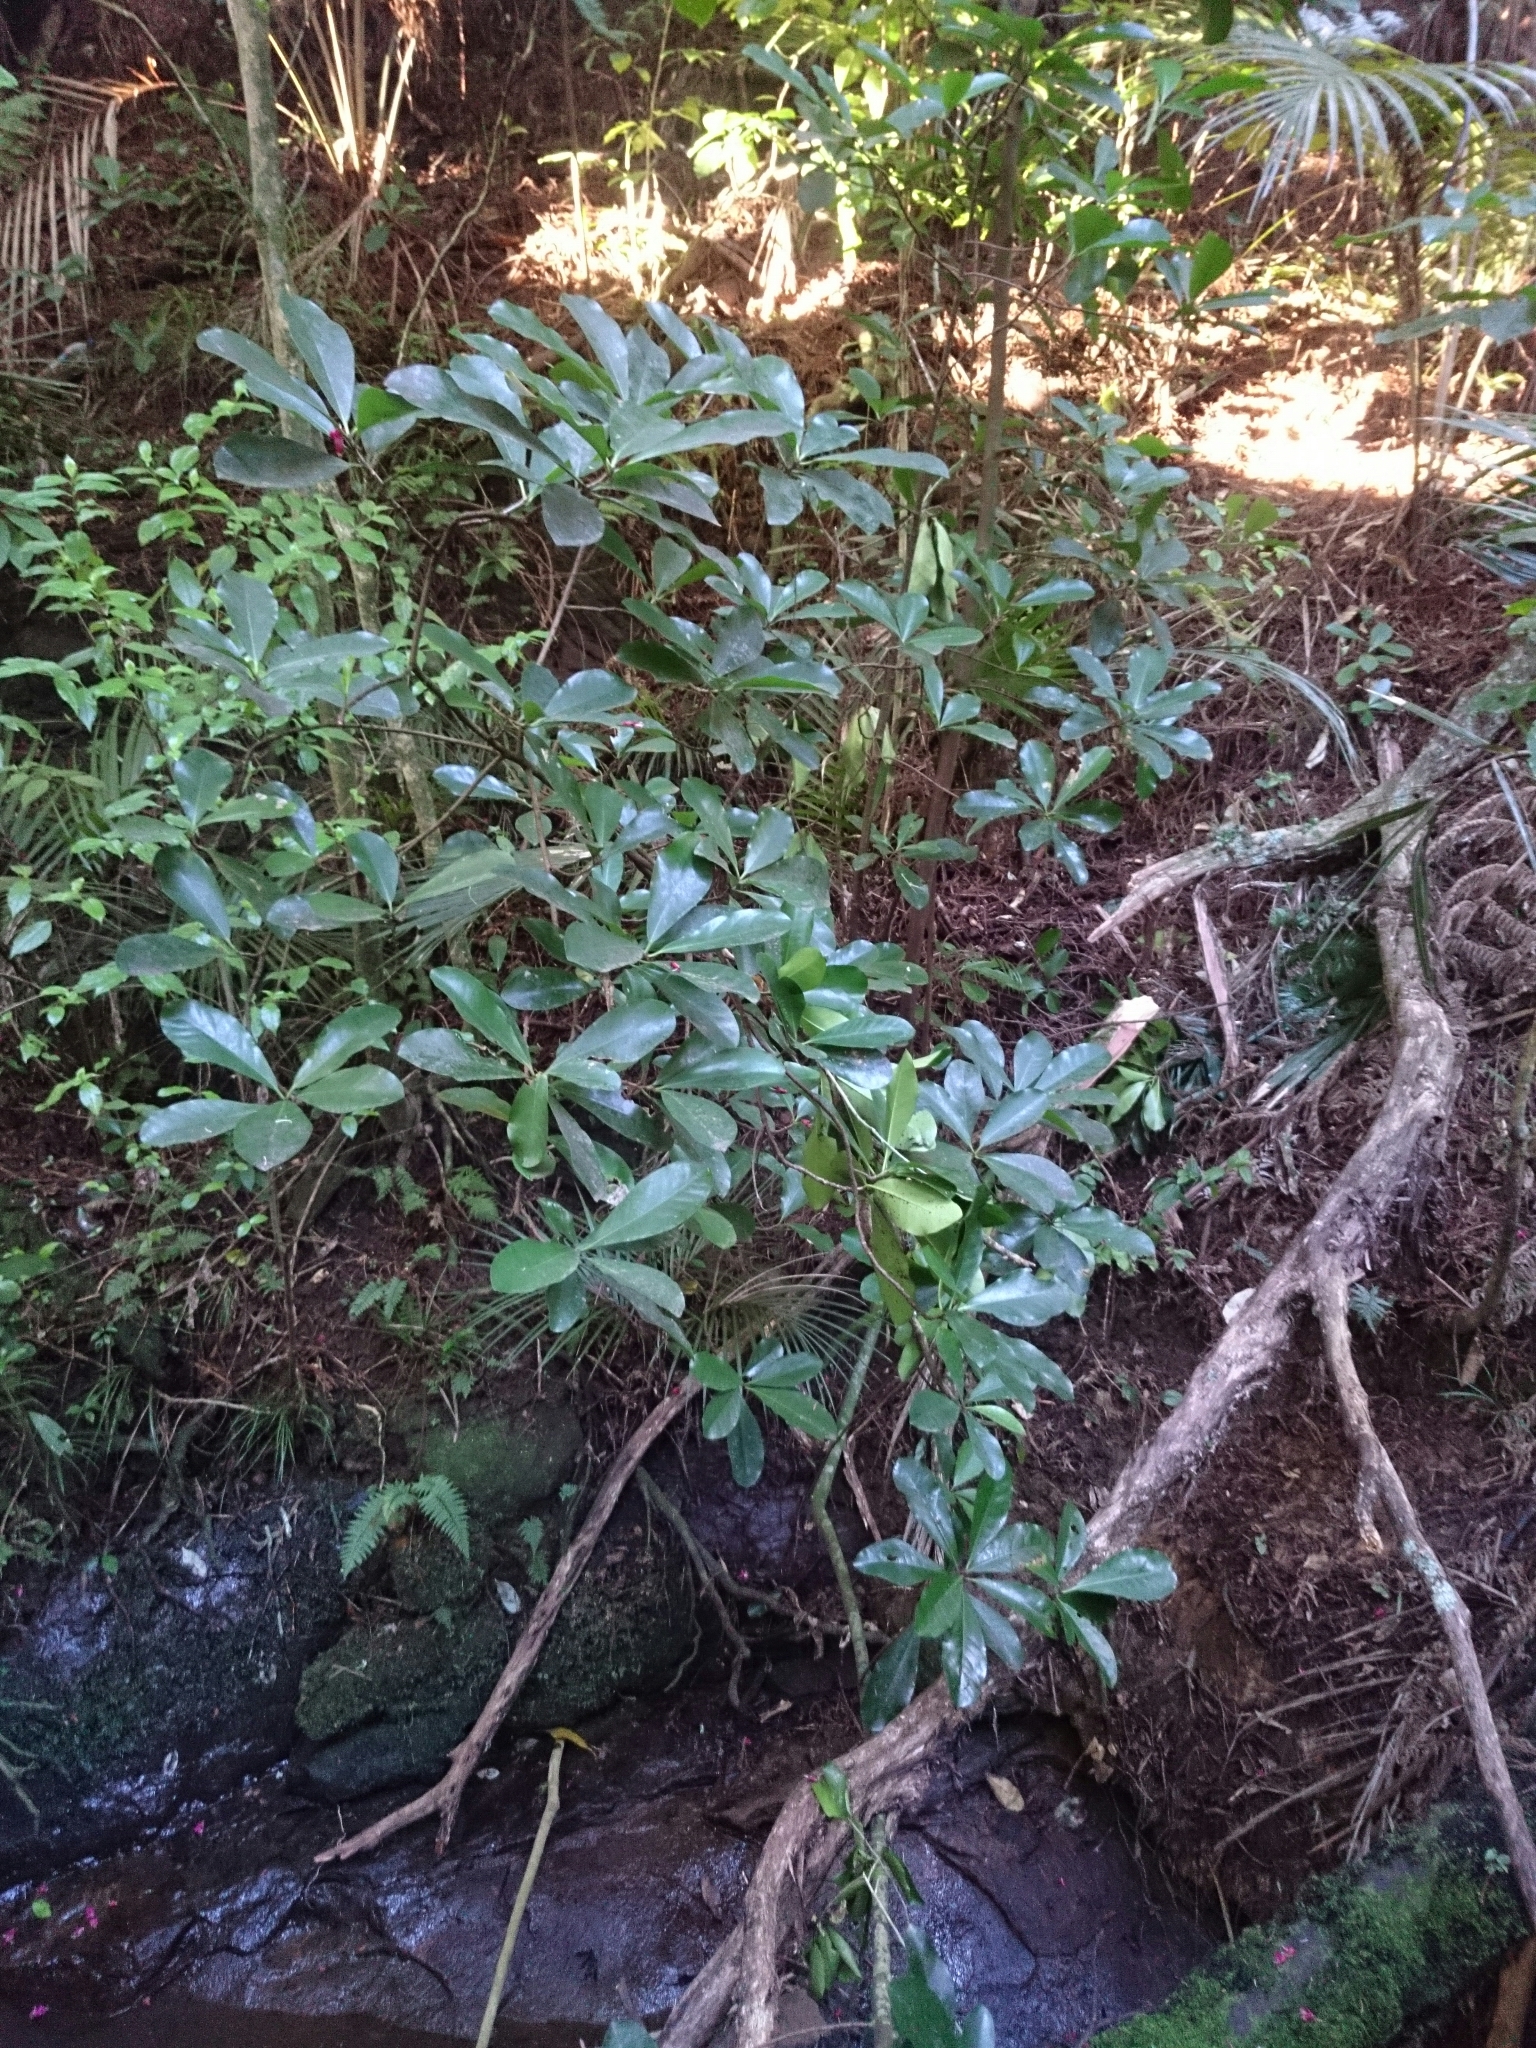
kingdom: Plantae
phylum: Tracheophyta
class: Magnoliopsida
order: Cucurbitales
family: Corynocarpaceae
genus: Corynocarpus
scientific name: Corynocarpus laevigatus
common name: New zealand laurel
